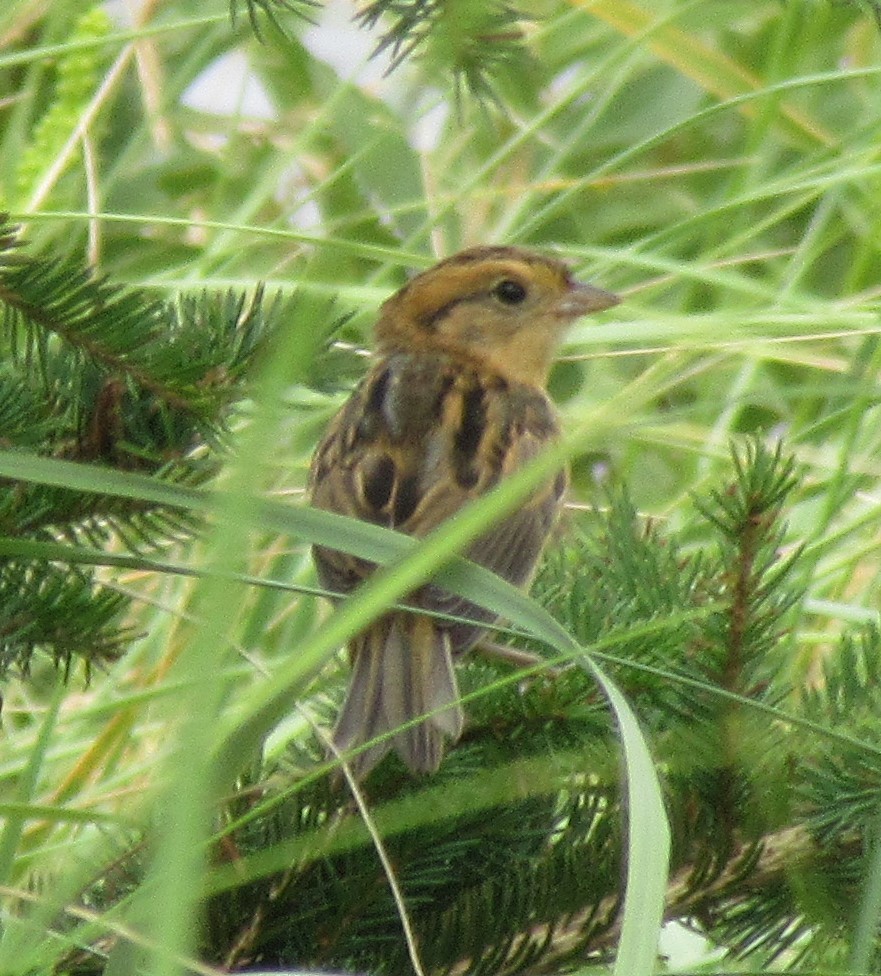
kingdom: Animalia
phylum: Chordata
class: Aves
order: Passeriformes
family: Passerellidae
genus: Ammospiza
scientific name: Ammospiza nelsoni
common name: Nelson's sparrow
